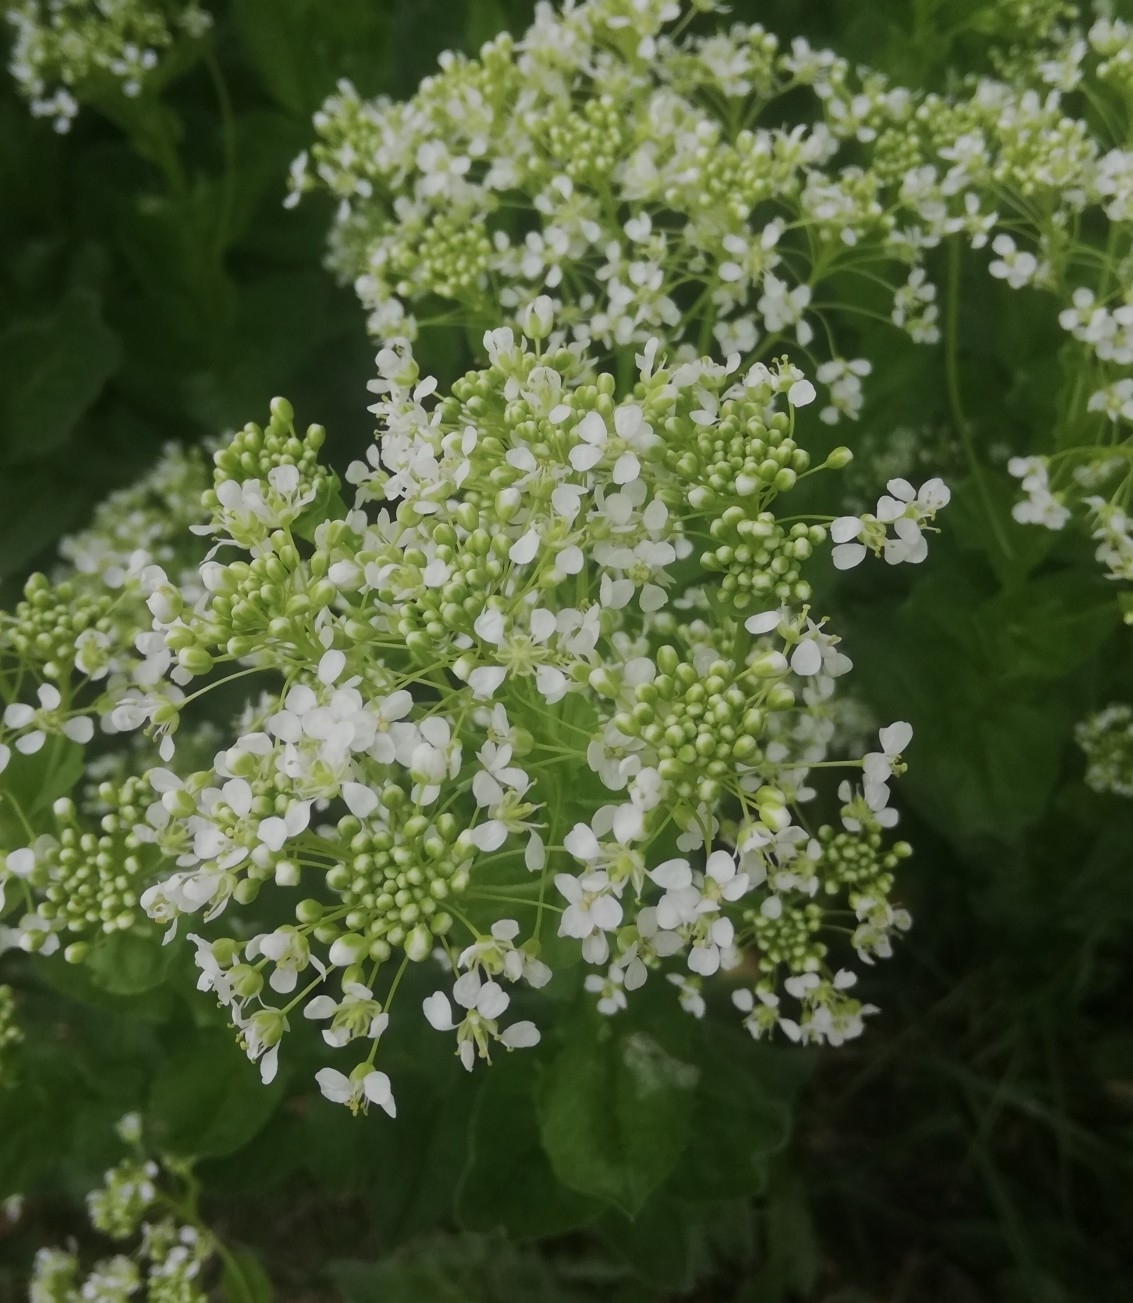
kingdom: Plantae
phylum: Tracheophyta
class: Magnoliopsida
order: Brassicales
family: Brassicaceae
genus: Lepidium
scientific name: Lepidium draba
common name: Hoary cress
